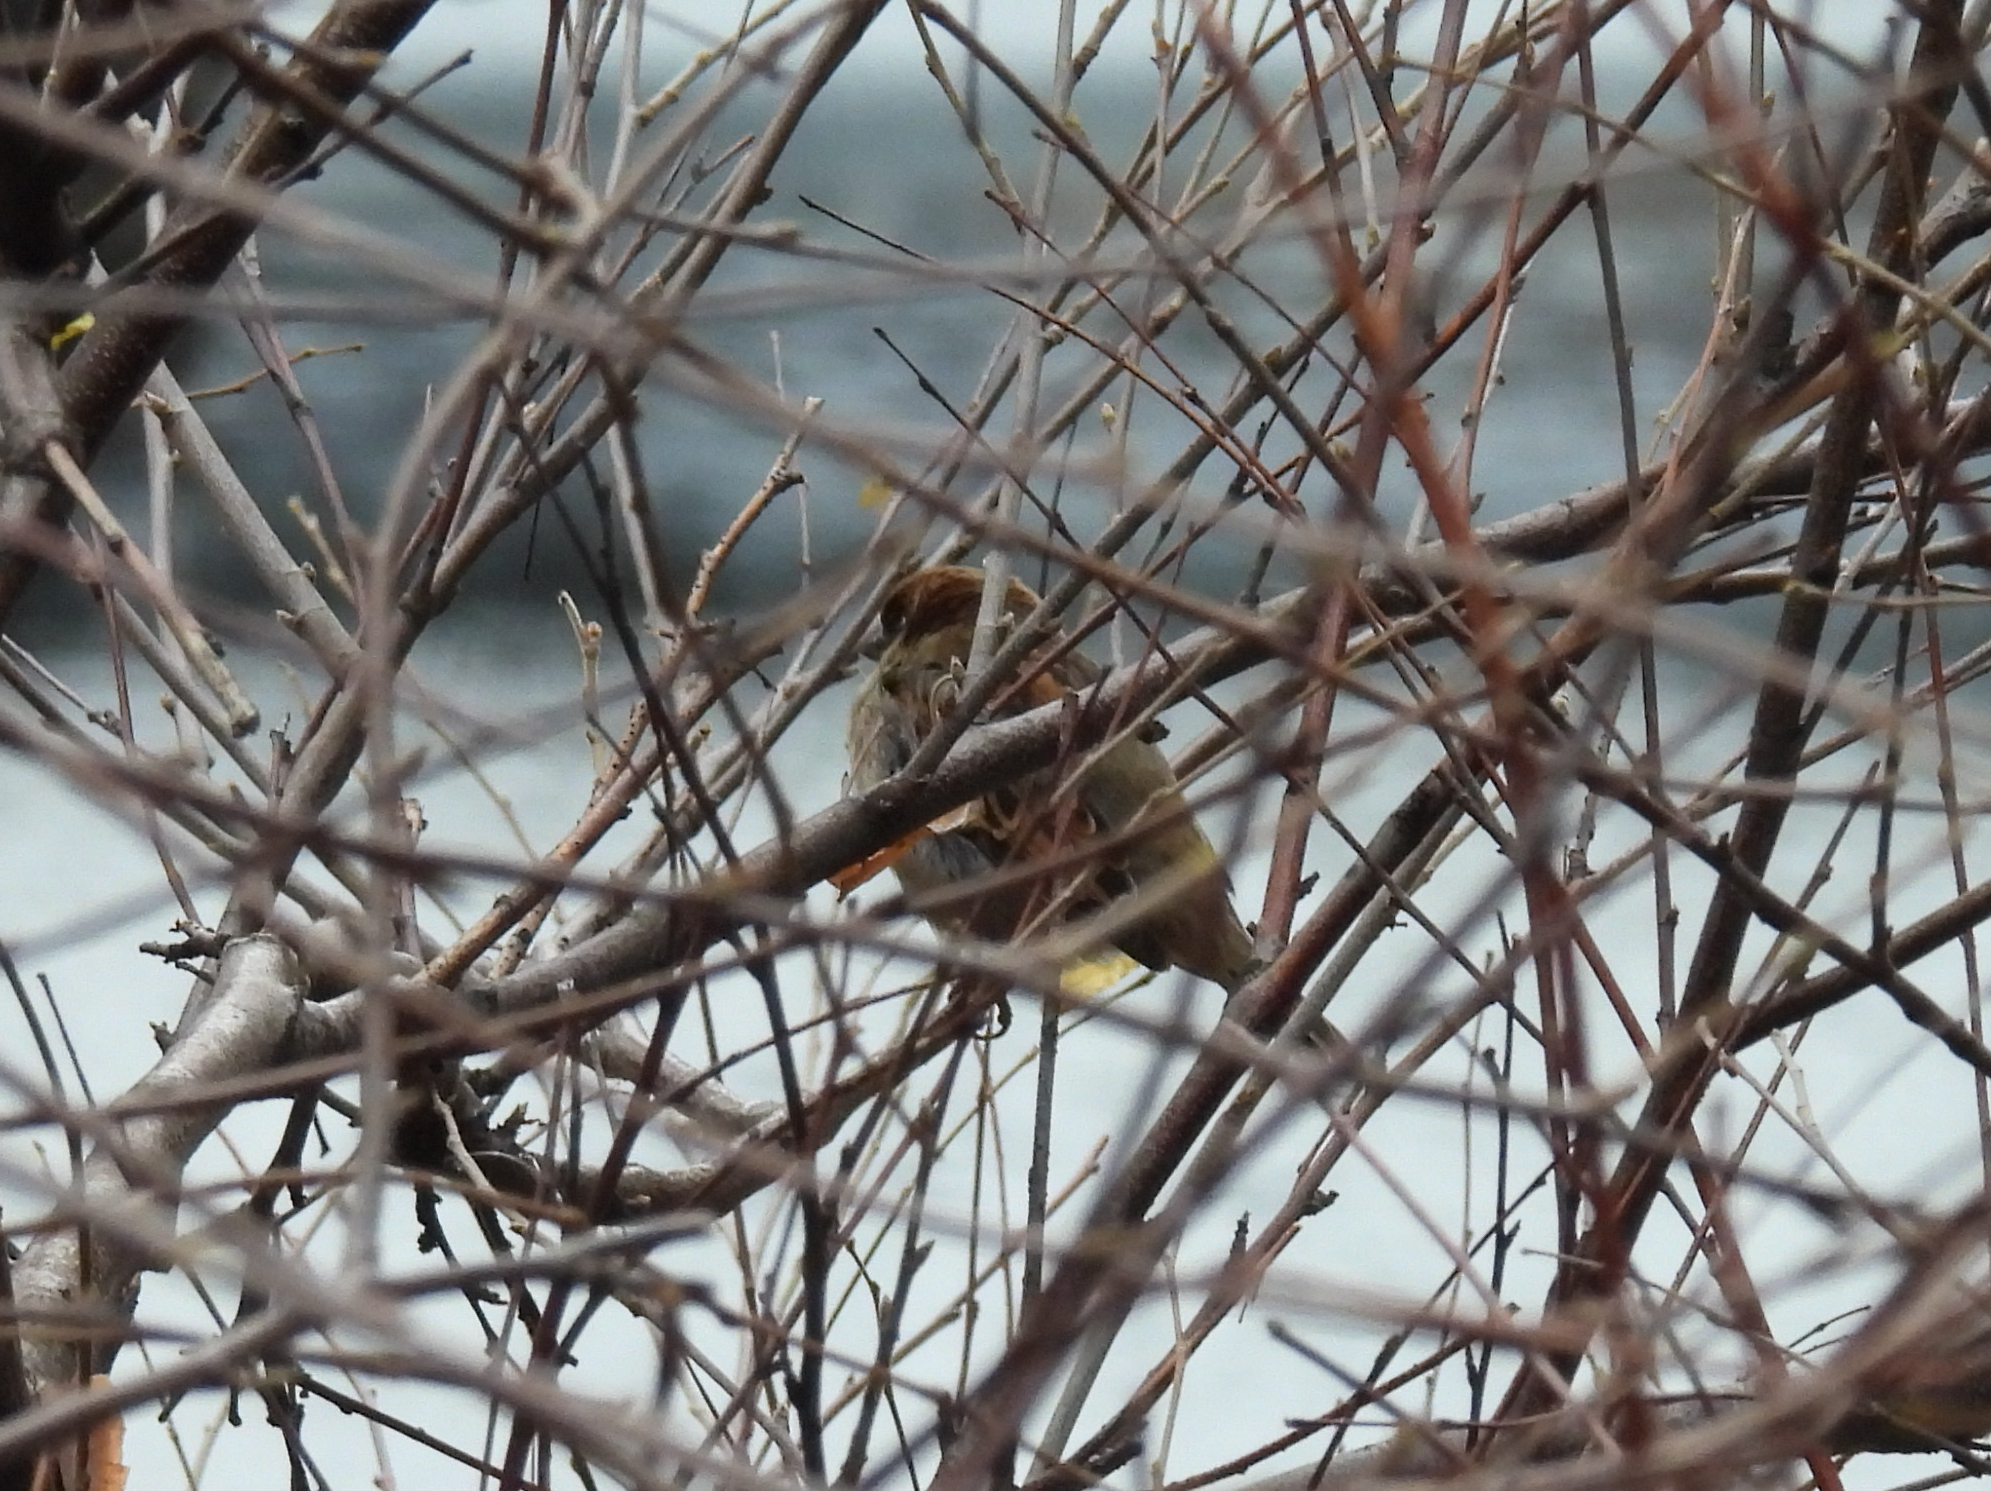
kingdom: Animalia
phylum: Chordata
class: Aves
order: Passeriformes
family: Passeridae
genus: Passer
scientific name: Passer domesticus
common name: House sparrow
